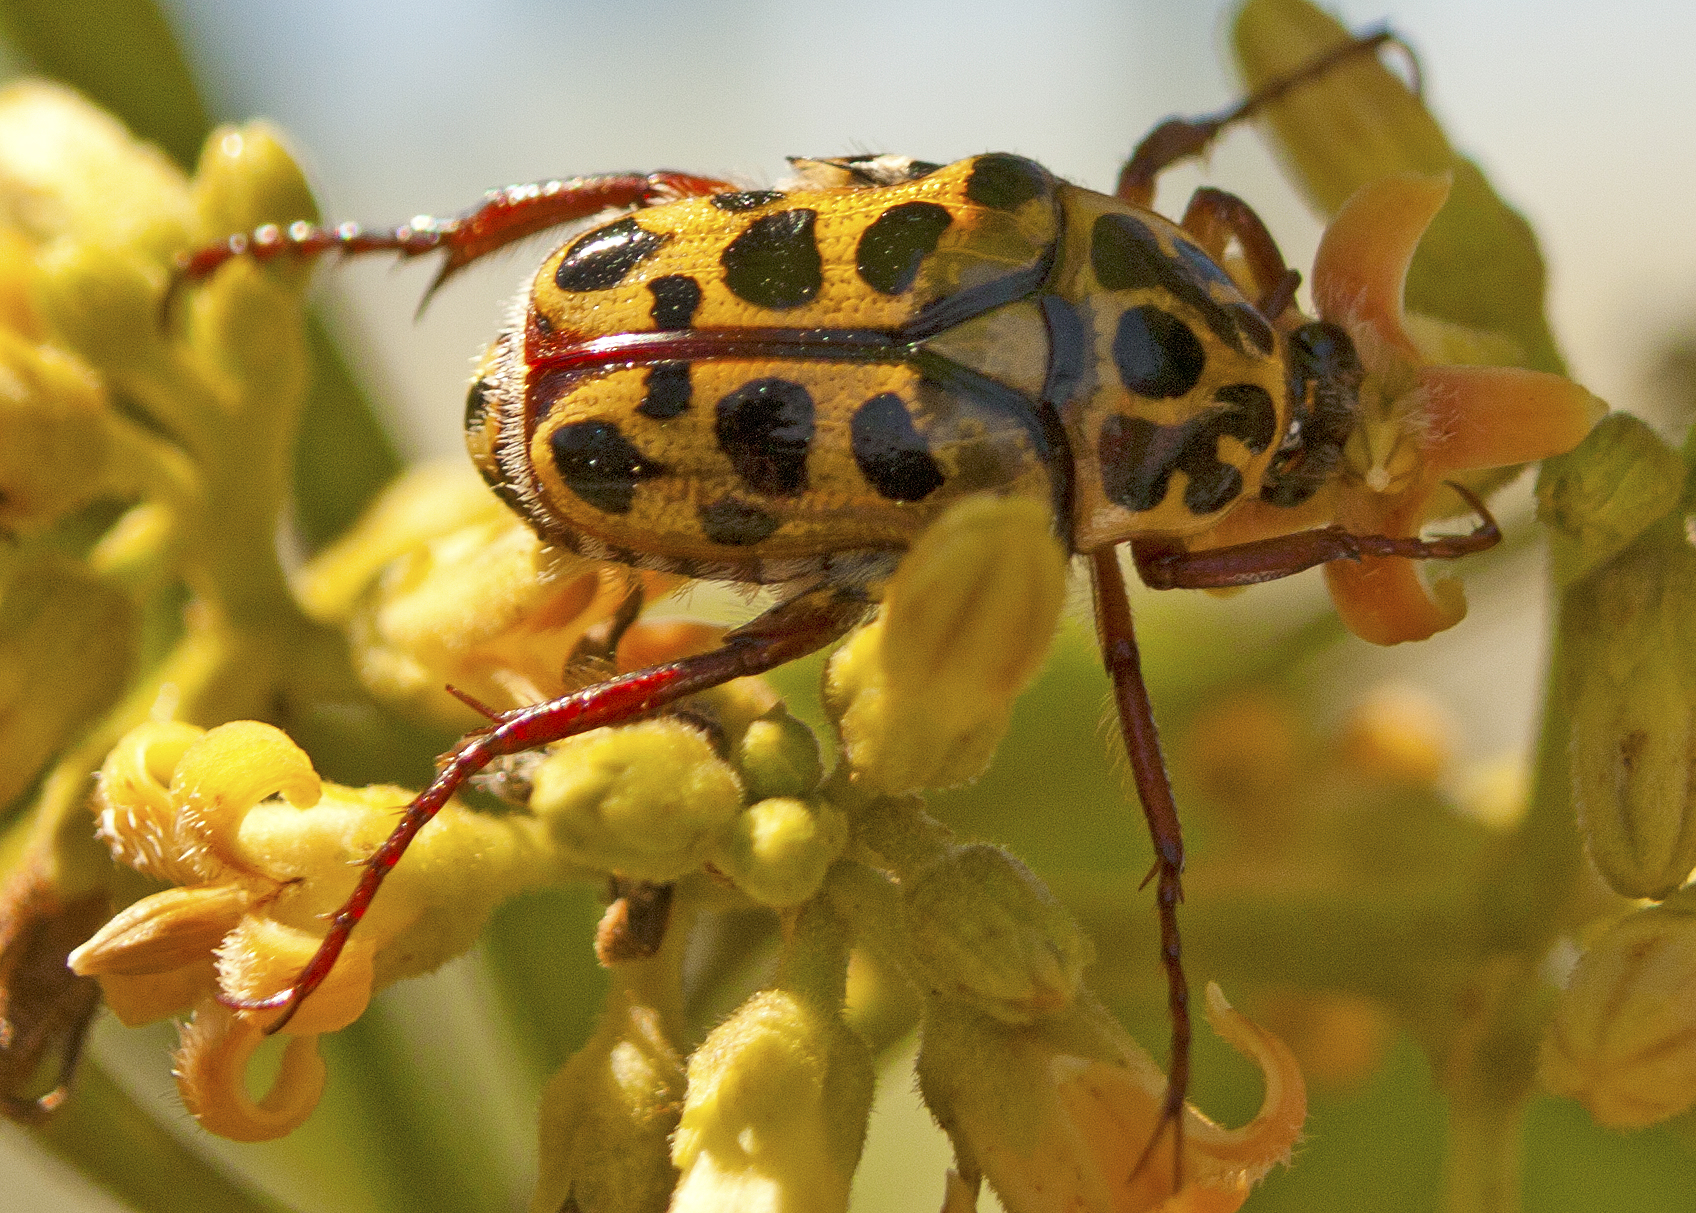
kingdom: Animalia
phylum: Arthropoda
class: Insecta
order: Coleoptera
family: Scarabaeidae
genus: Neorrhina
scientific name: Neorrhina punctatum
